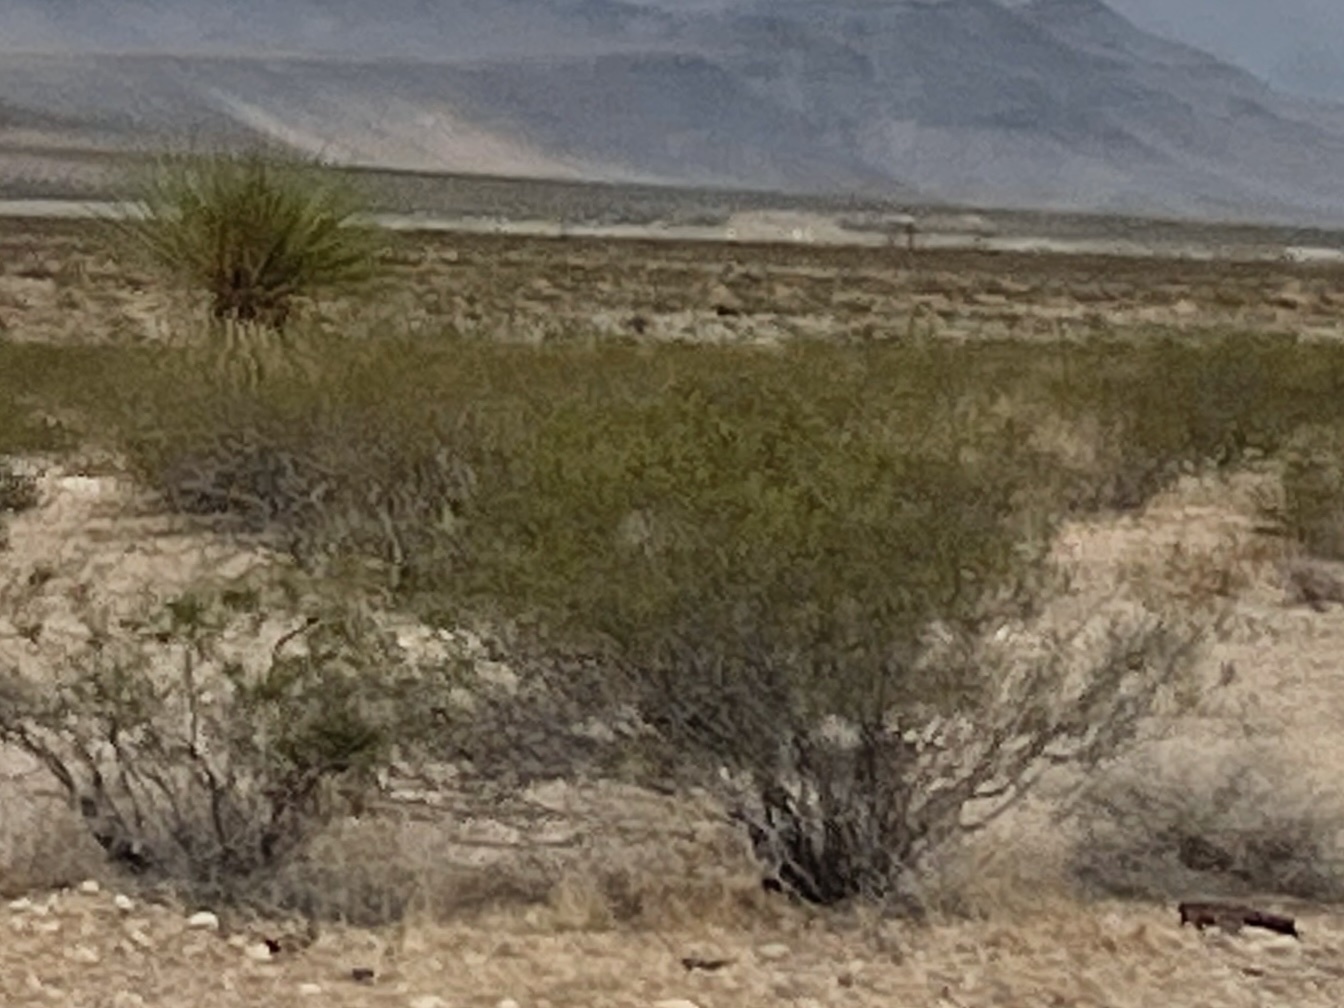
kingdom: Plantae
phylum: Tracheophyta
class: Magnoliopsida
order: Zygophyllales
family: Zygophyllaceae
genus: Larrea
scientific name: Larrea tridentata
